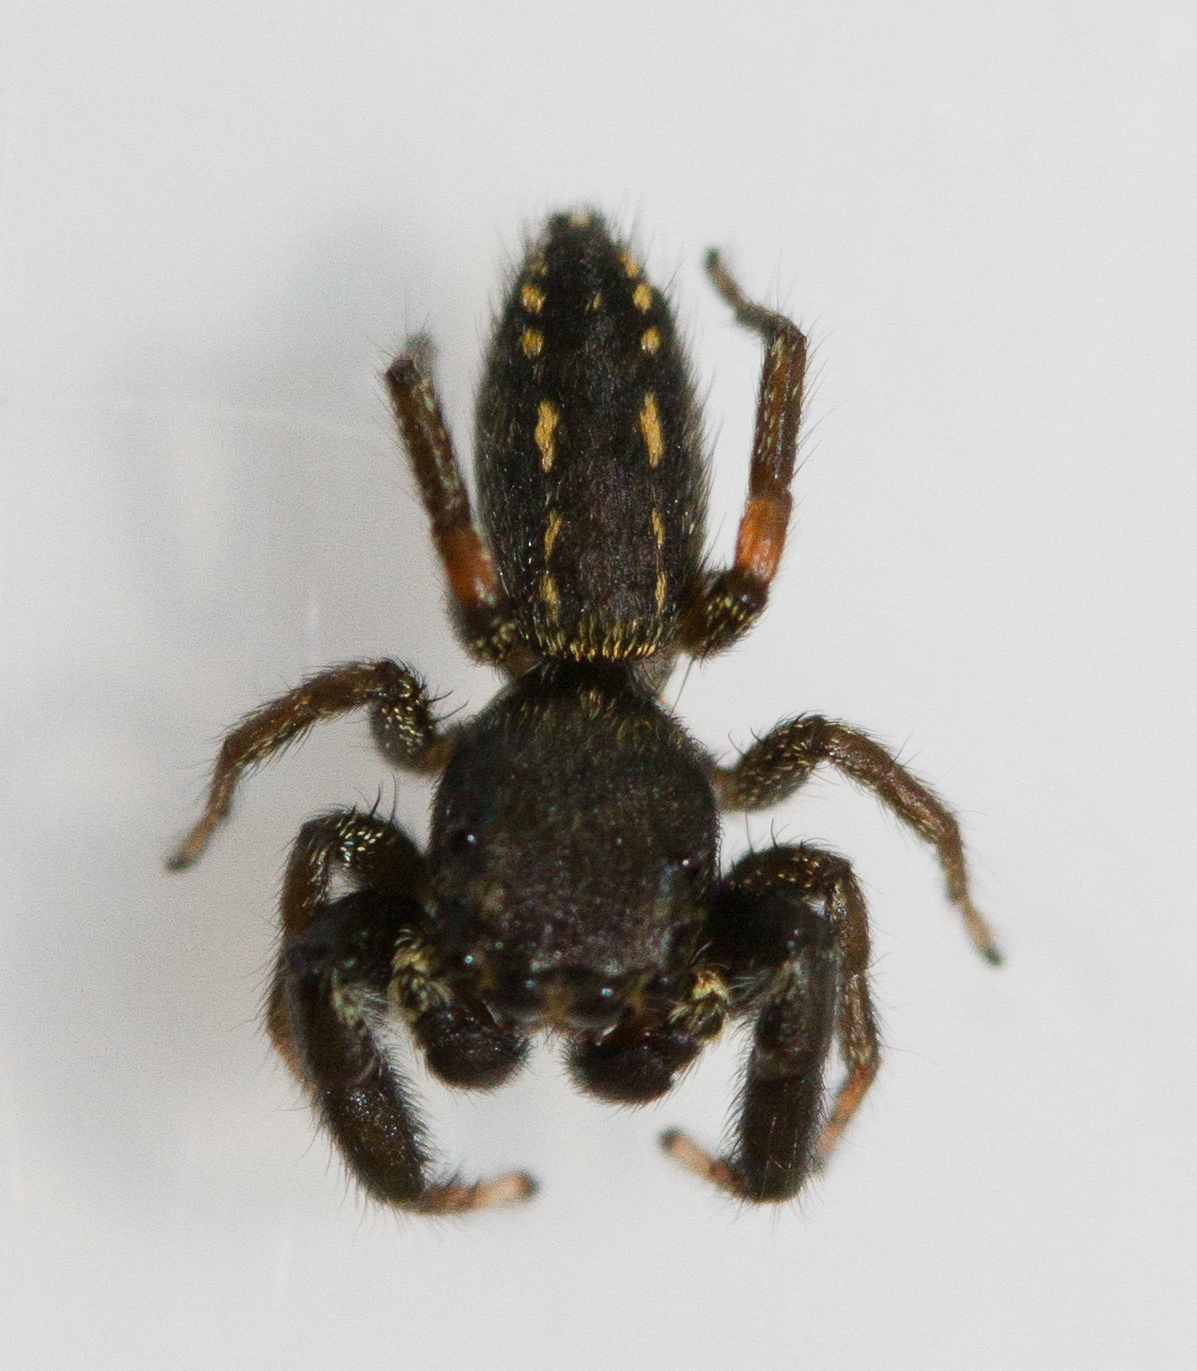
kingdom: Animalia
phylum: Arthropoda
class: Arachnida
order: Araneae
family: Salticidae
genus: Metacyrba
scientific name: Metacyrba taeniola
